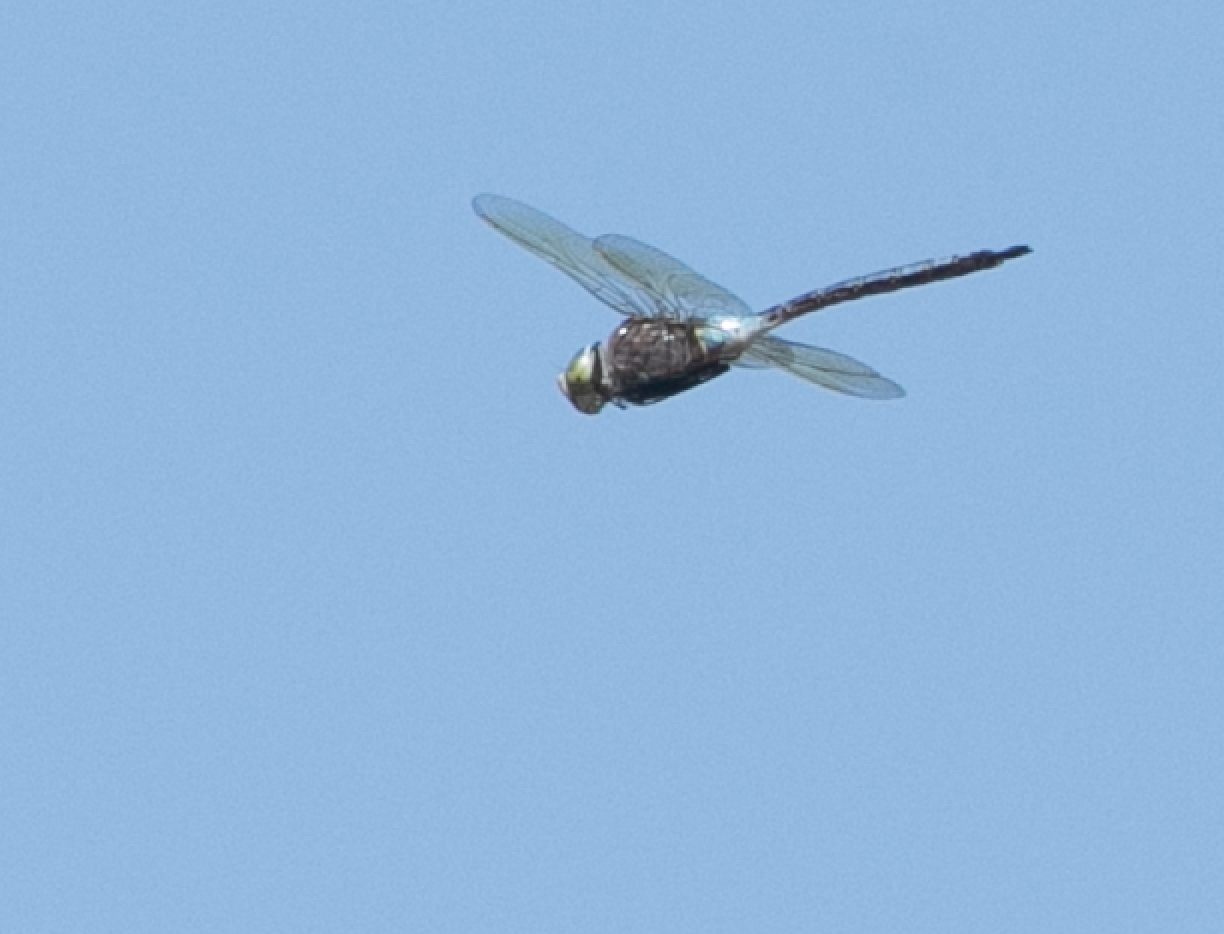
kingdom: Animalia
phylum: Arthropoda
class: Insecta
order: Odonata
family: Aeshnidae
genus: Anax
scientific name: Anax parthenope
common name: Lesser emperor
